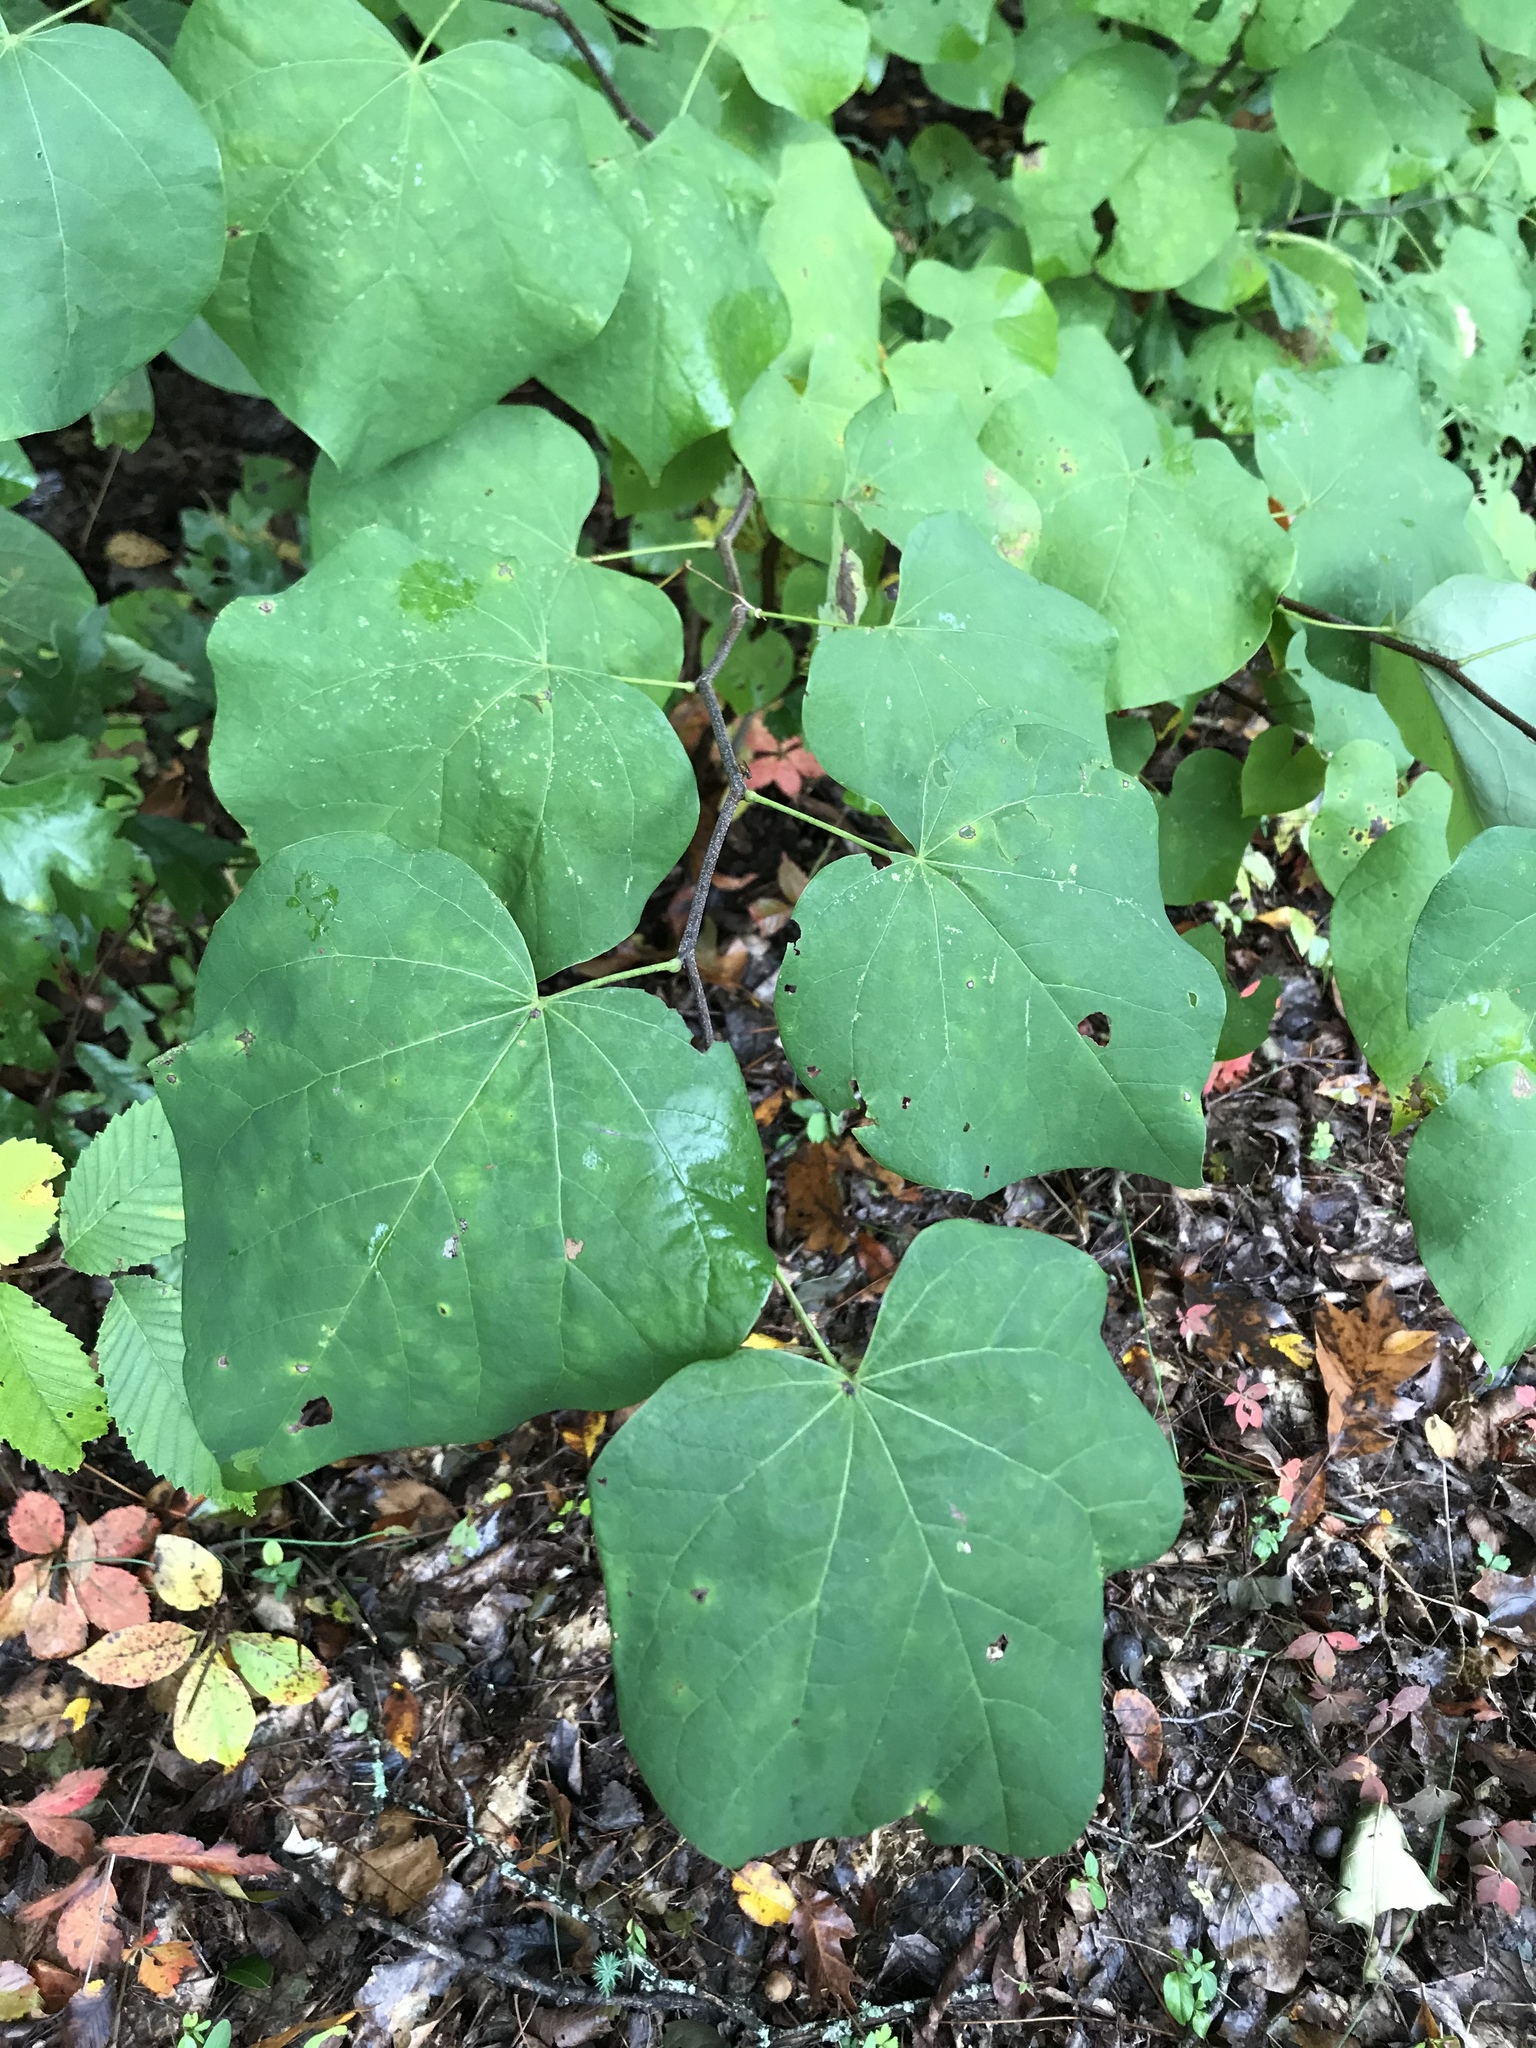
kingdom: Plantae
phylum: Tracheophyta
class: Magnoliopsida
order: Fabales
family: Fabaceae
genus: Cercis
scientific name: Cercis canadensis
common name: Eastern redbud
